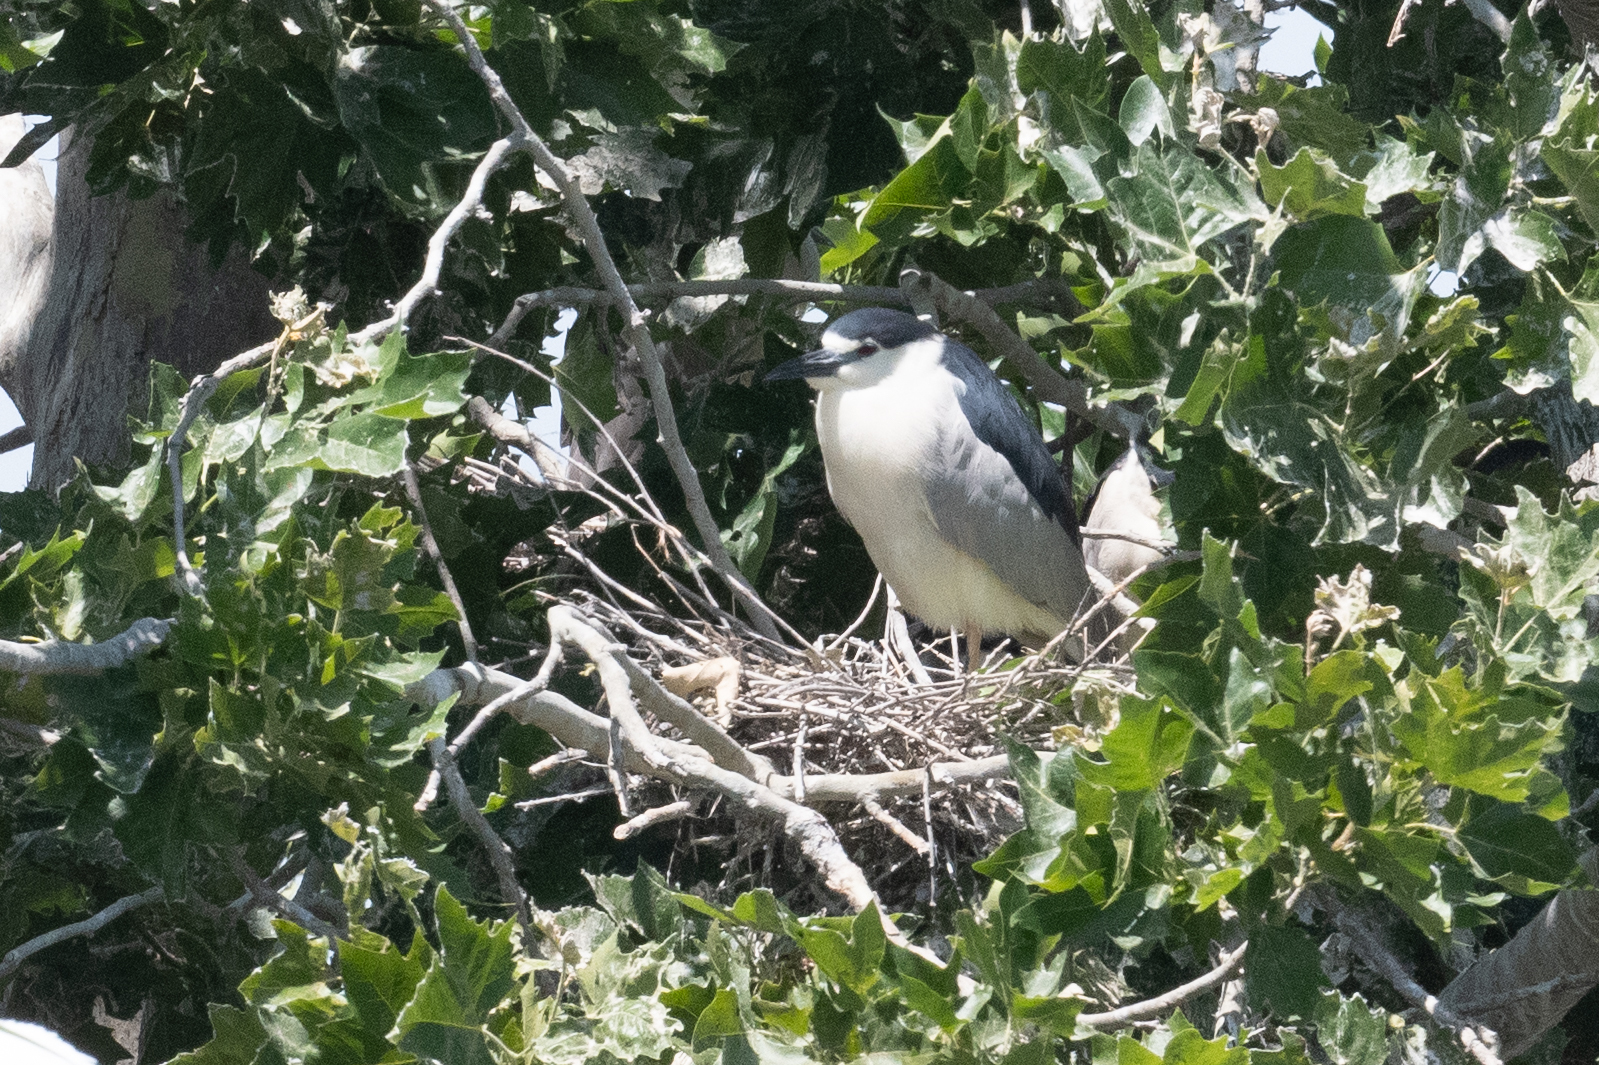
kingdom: Animalia
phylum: Chordata
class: Aves
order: Pelecaniformes
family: Ardeidae
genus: Nycticorax
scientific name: Nycticorax nycticorax
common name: Black-crowned night heron
